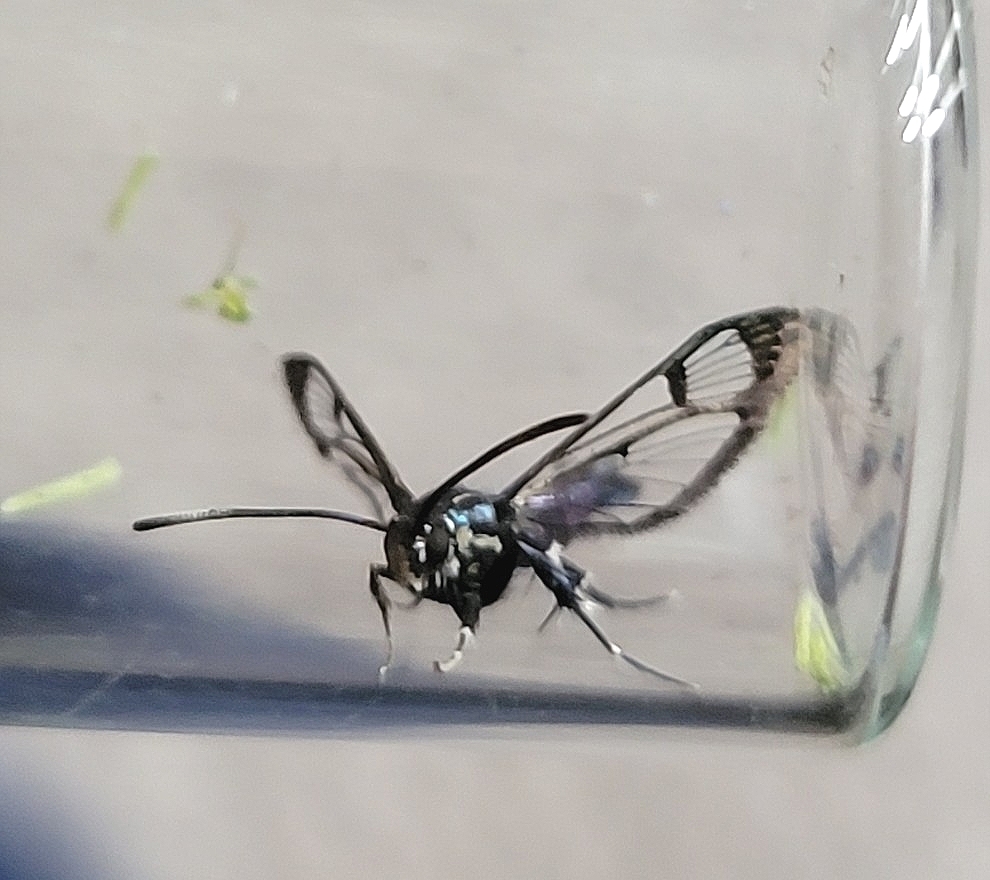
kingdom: Animalia
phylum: Arthropoda
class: Insecta
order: Lepidoptera
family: Sesiidae
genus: Synanthedon
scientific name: Synanthedon albicornis
